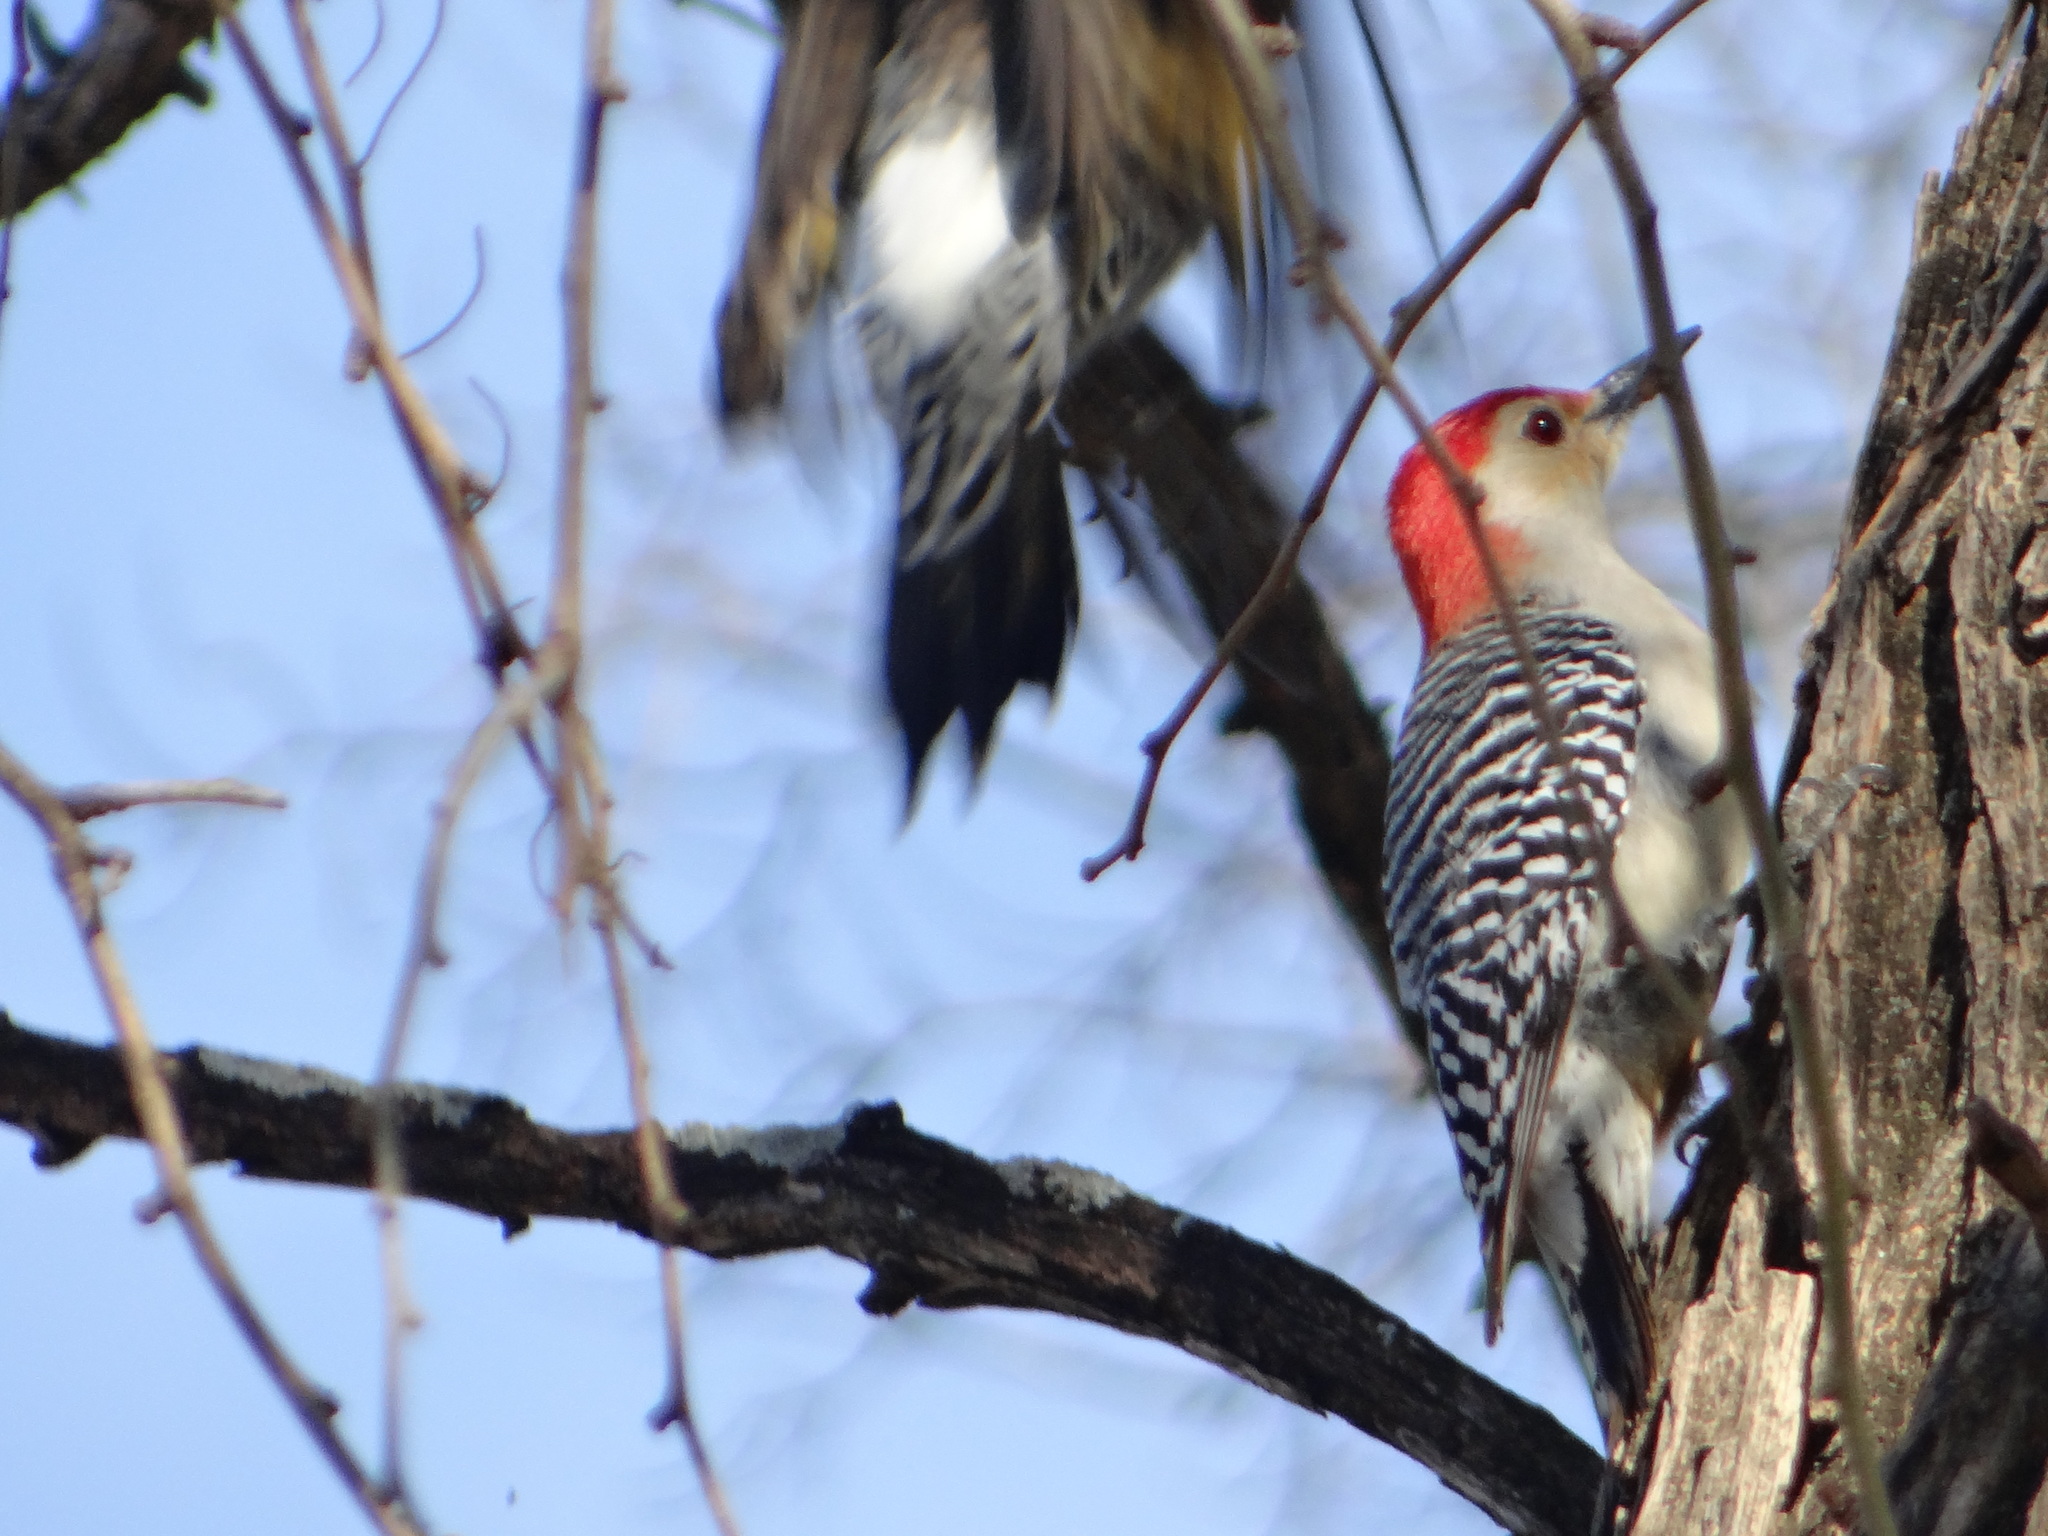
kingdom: Animalia
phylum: Chordata
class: Aves
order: Piciformes
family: Picidae
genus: Melanerpes
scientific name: Melanerpes carolinus
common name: Red-bellied woodpecker
